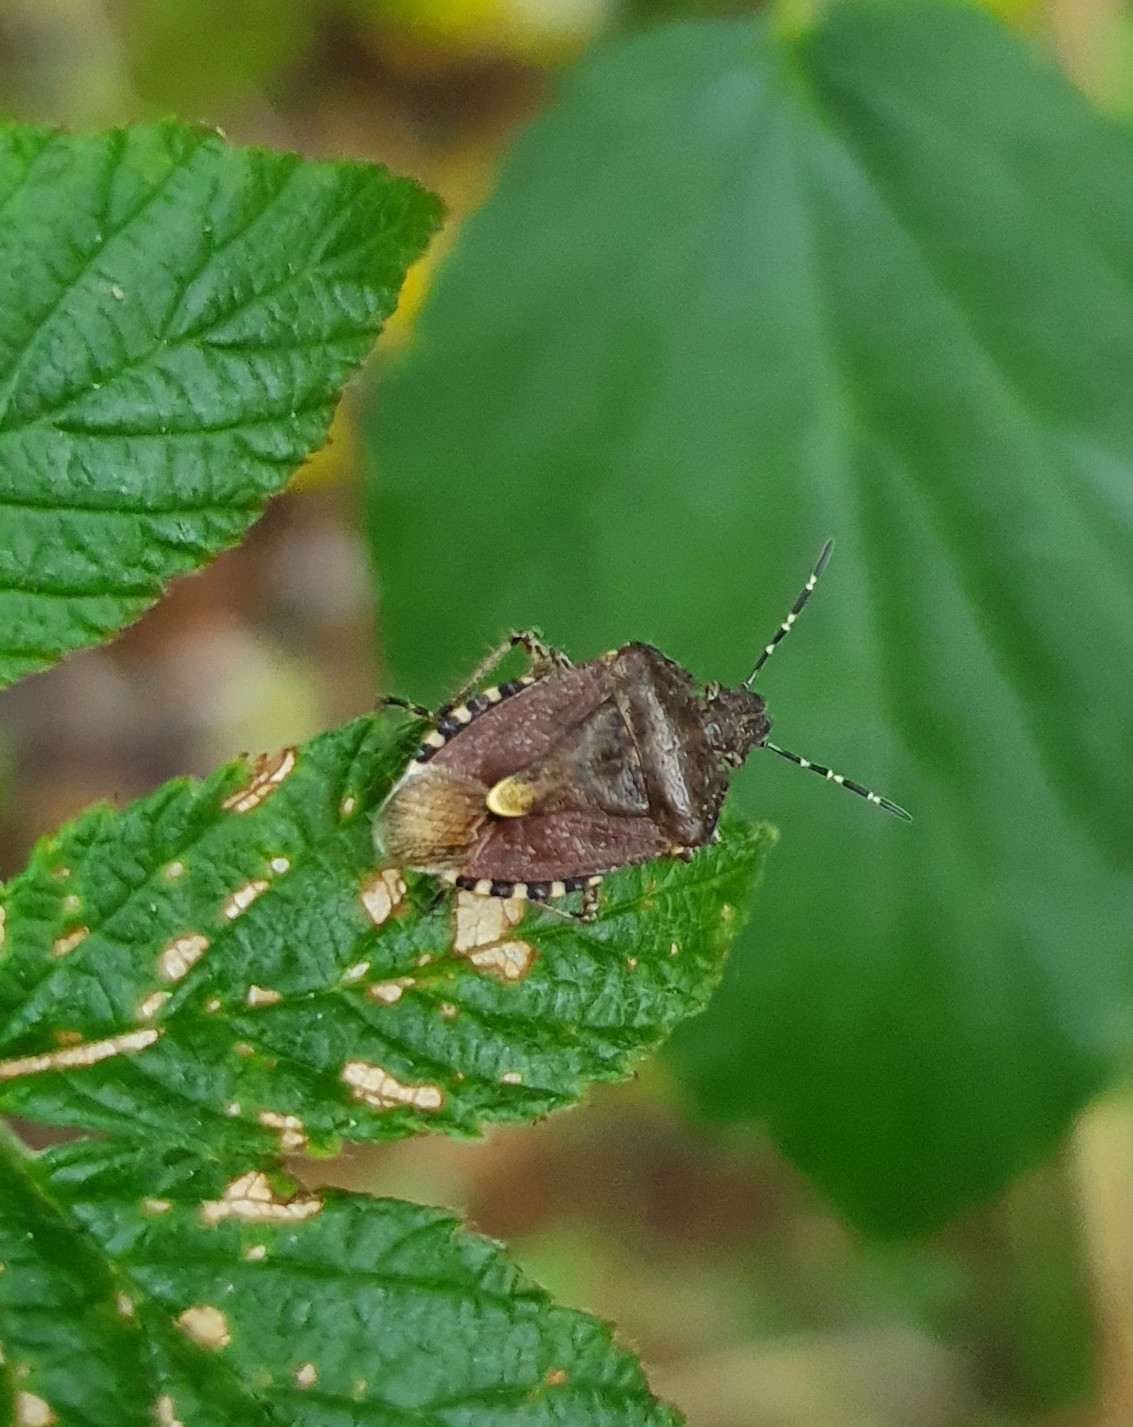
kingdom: Animalia
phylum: Arthropoda
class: Insecta
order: Hemiptera
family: Pentatomidae
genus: Dolycoris
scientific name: Dolycoris baccarum
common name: Sloe bug
